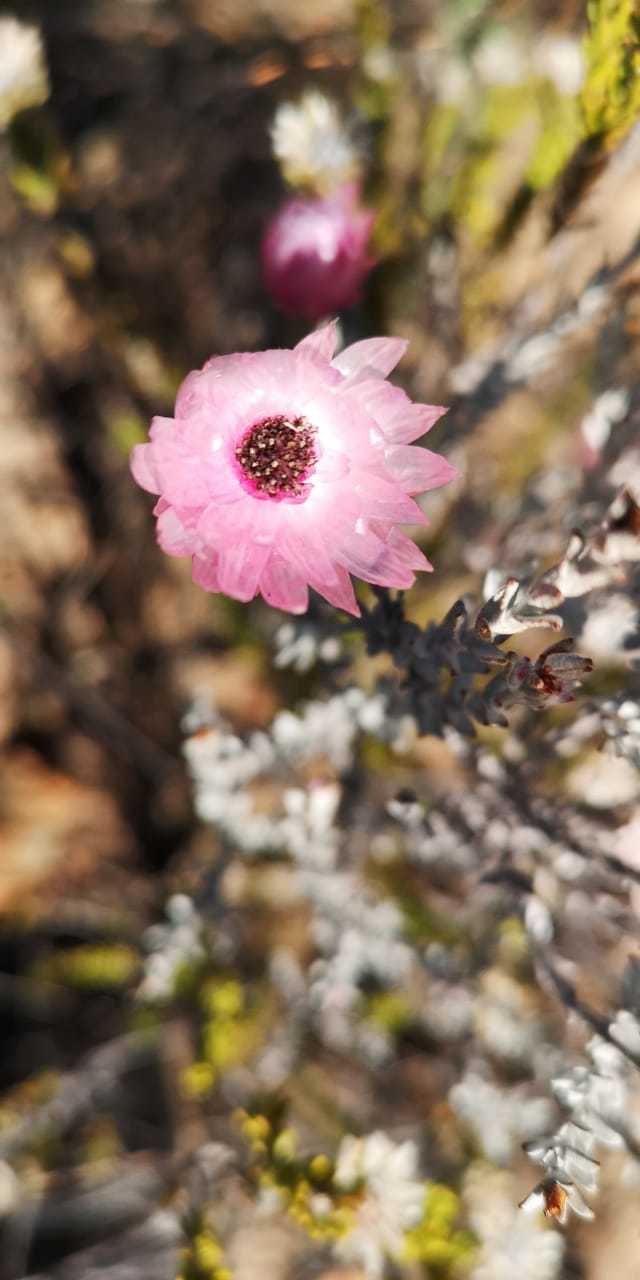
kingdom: Plantae
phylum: Tracheophyta
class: Magnoliopsida
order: Asterales
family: Asteraceae
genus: Syncarpha
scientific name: Syncarpha canescens
